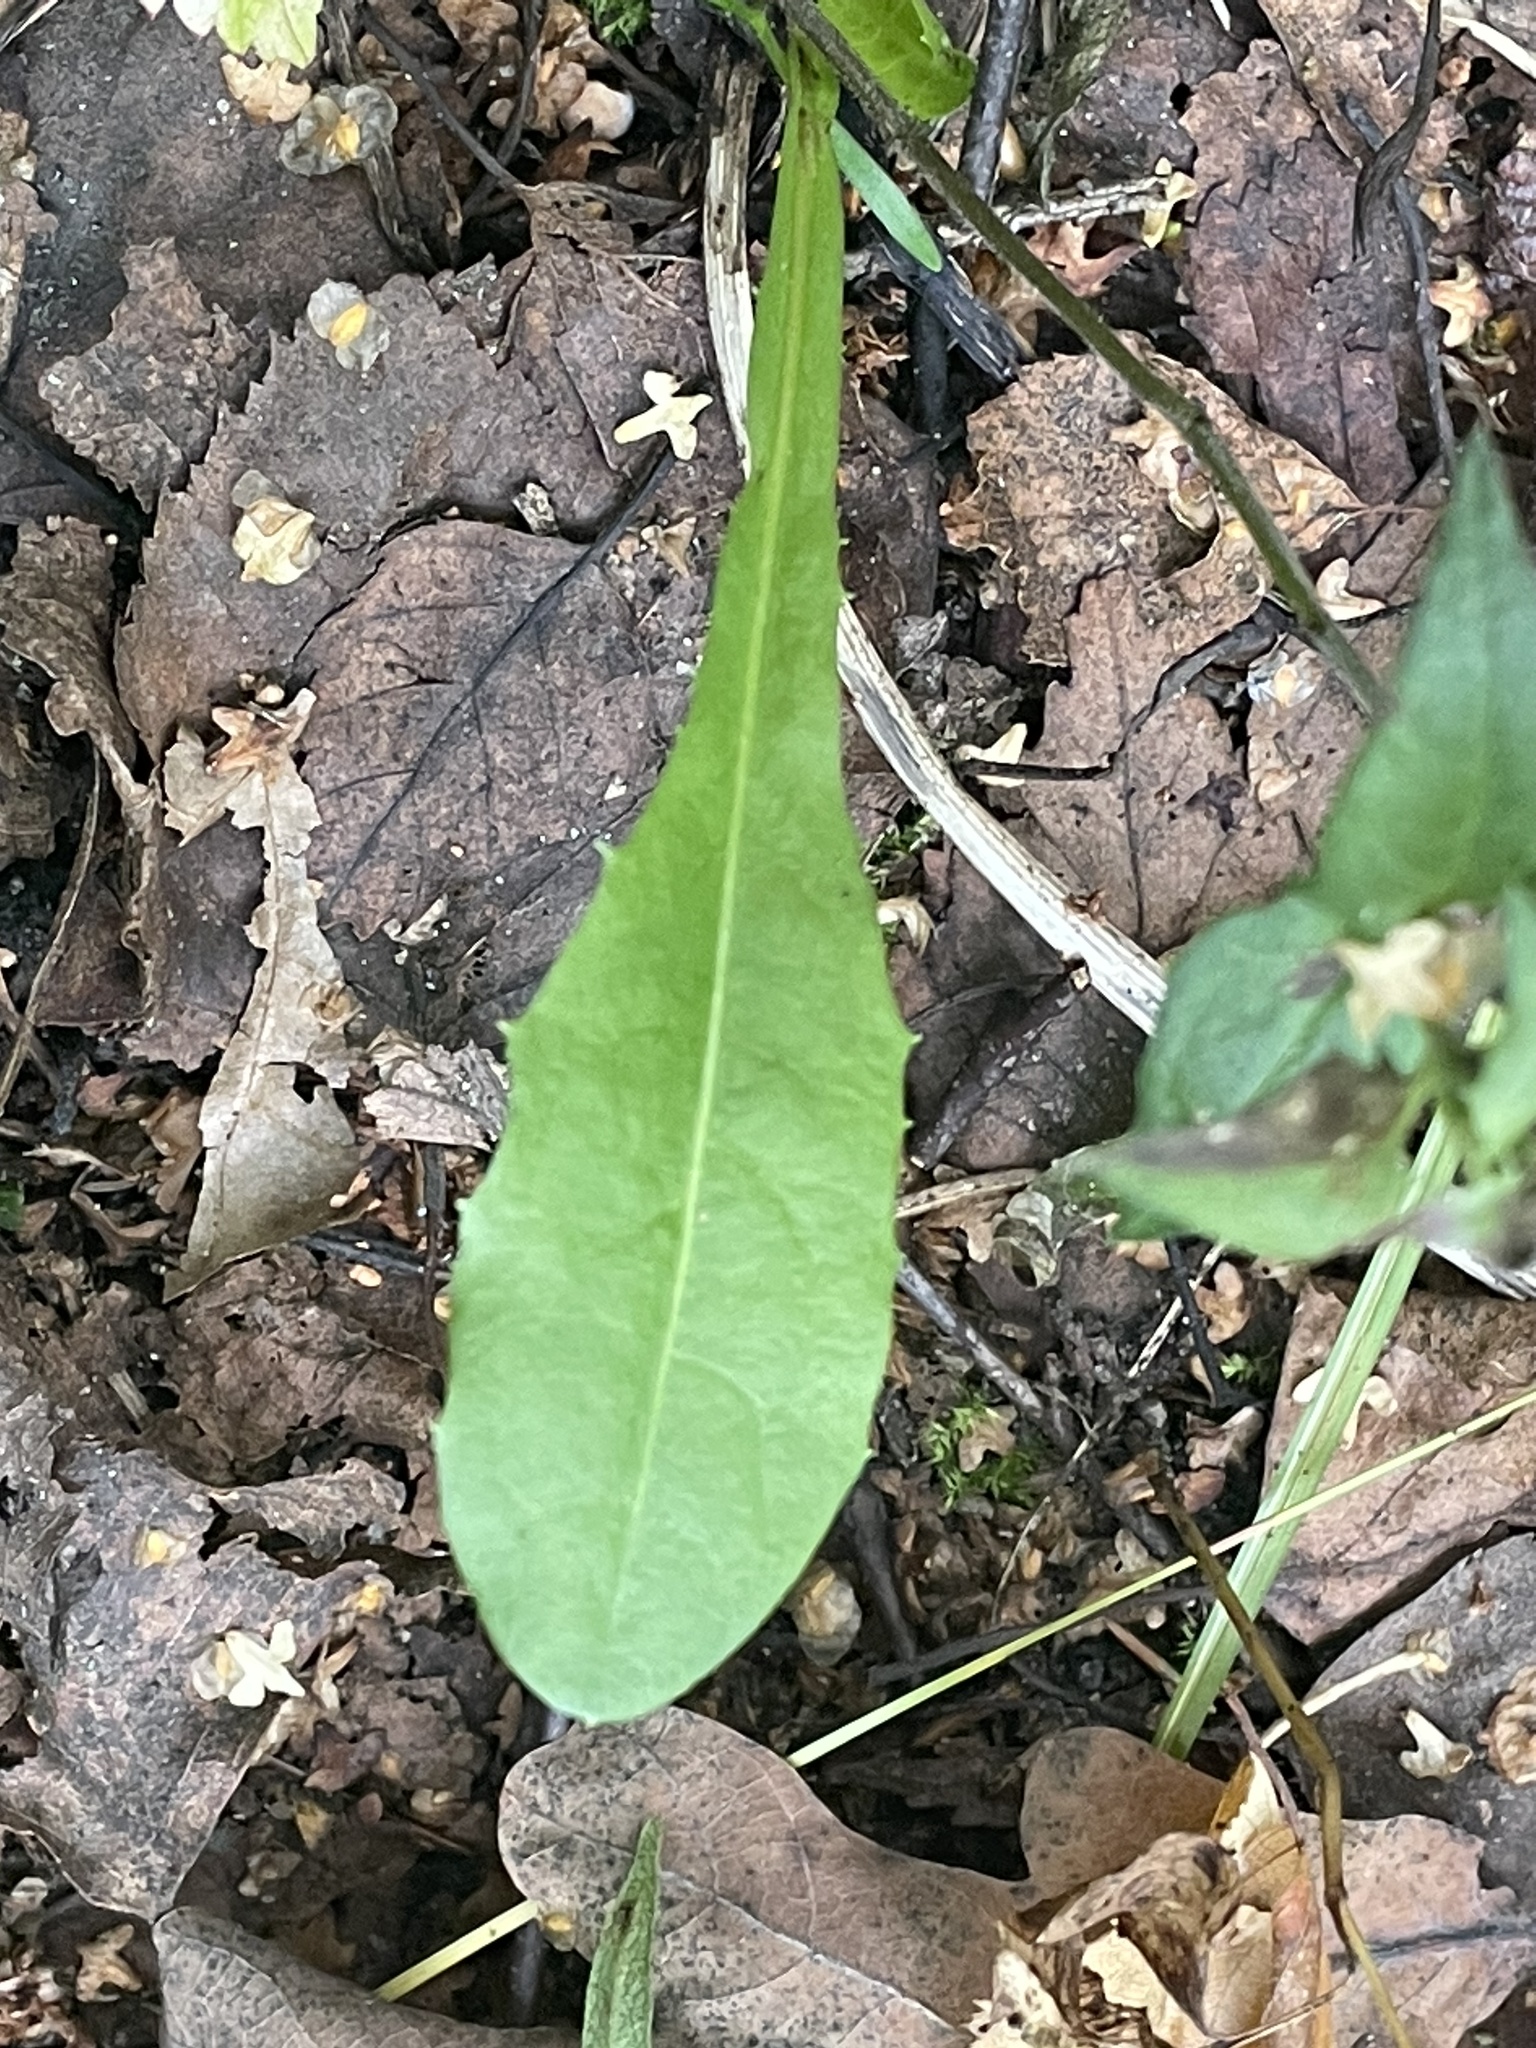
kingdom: Plantae
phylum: Tracheophyta
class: Magnoliopsida
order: Asterales
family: Asteraceae
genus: Taraxacum
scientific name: Taraxacum officinale
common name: Common dandelion
